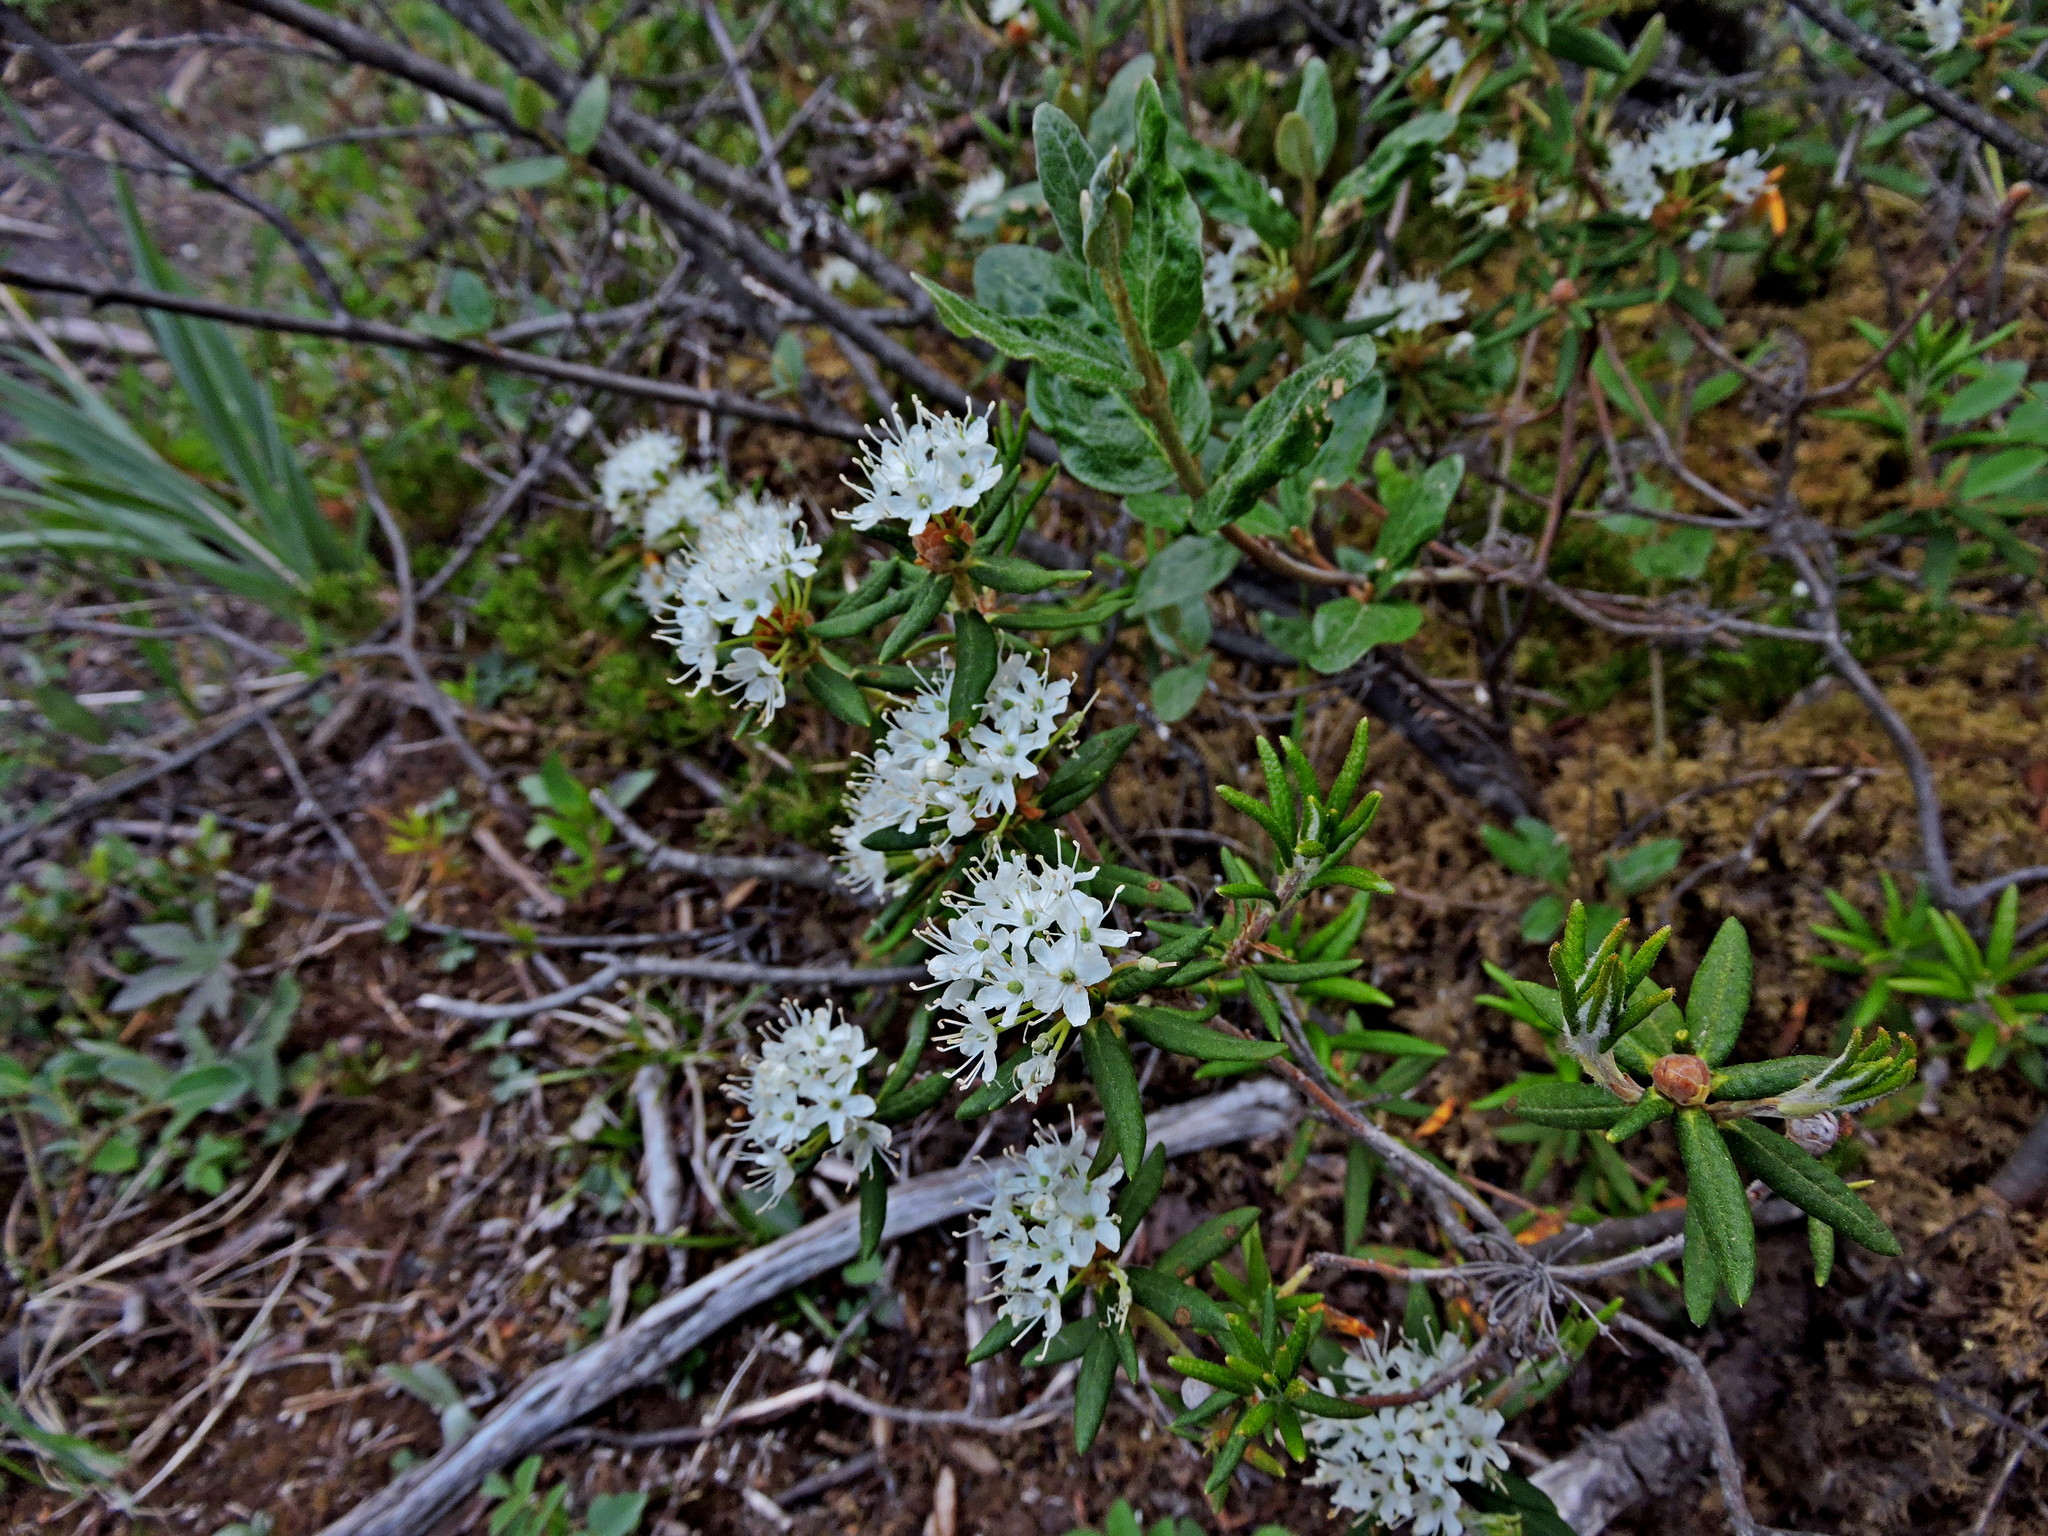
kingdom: Plantae
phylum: Tracheophyta
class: Magnoliopsida
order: Ericales
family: Ericaceae
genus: Rhododendron
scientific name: Rhododendron groenlandicum
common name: Bog labrador tea
